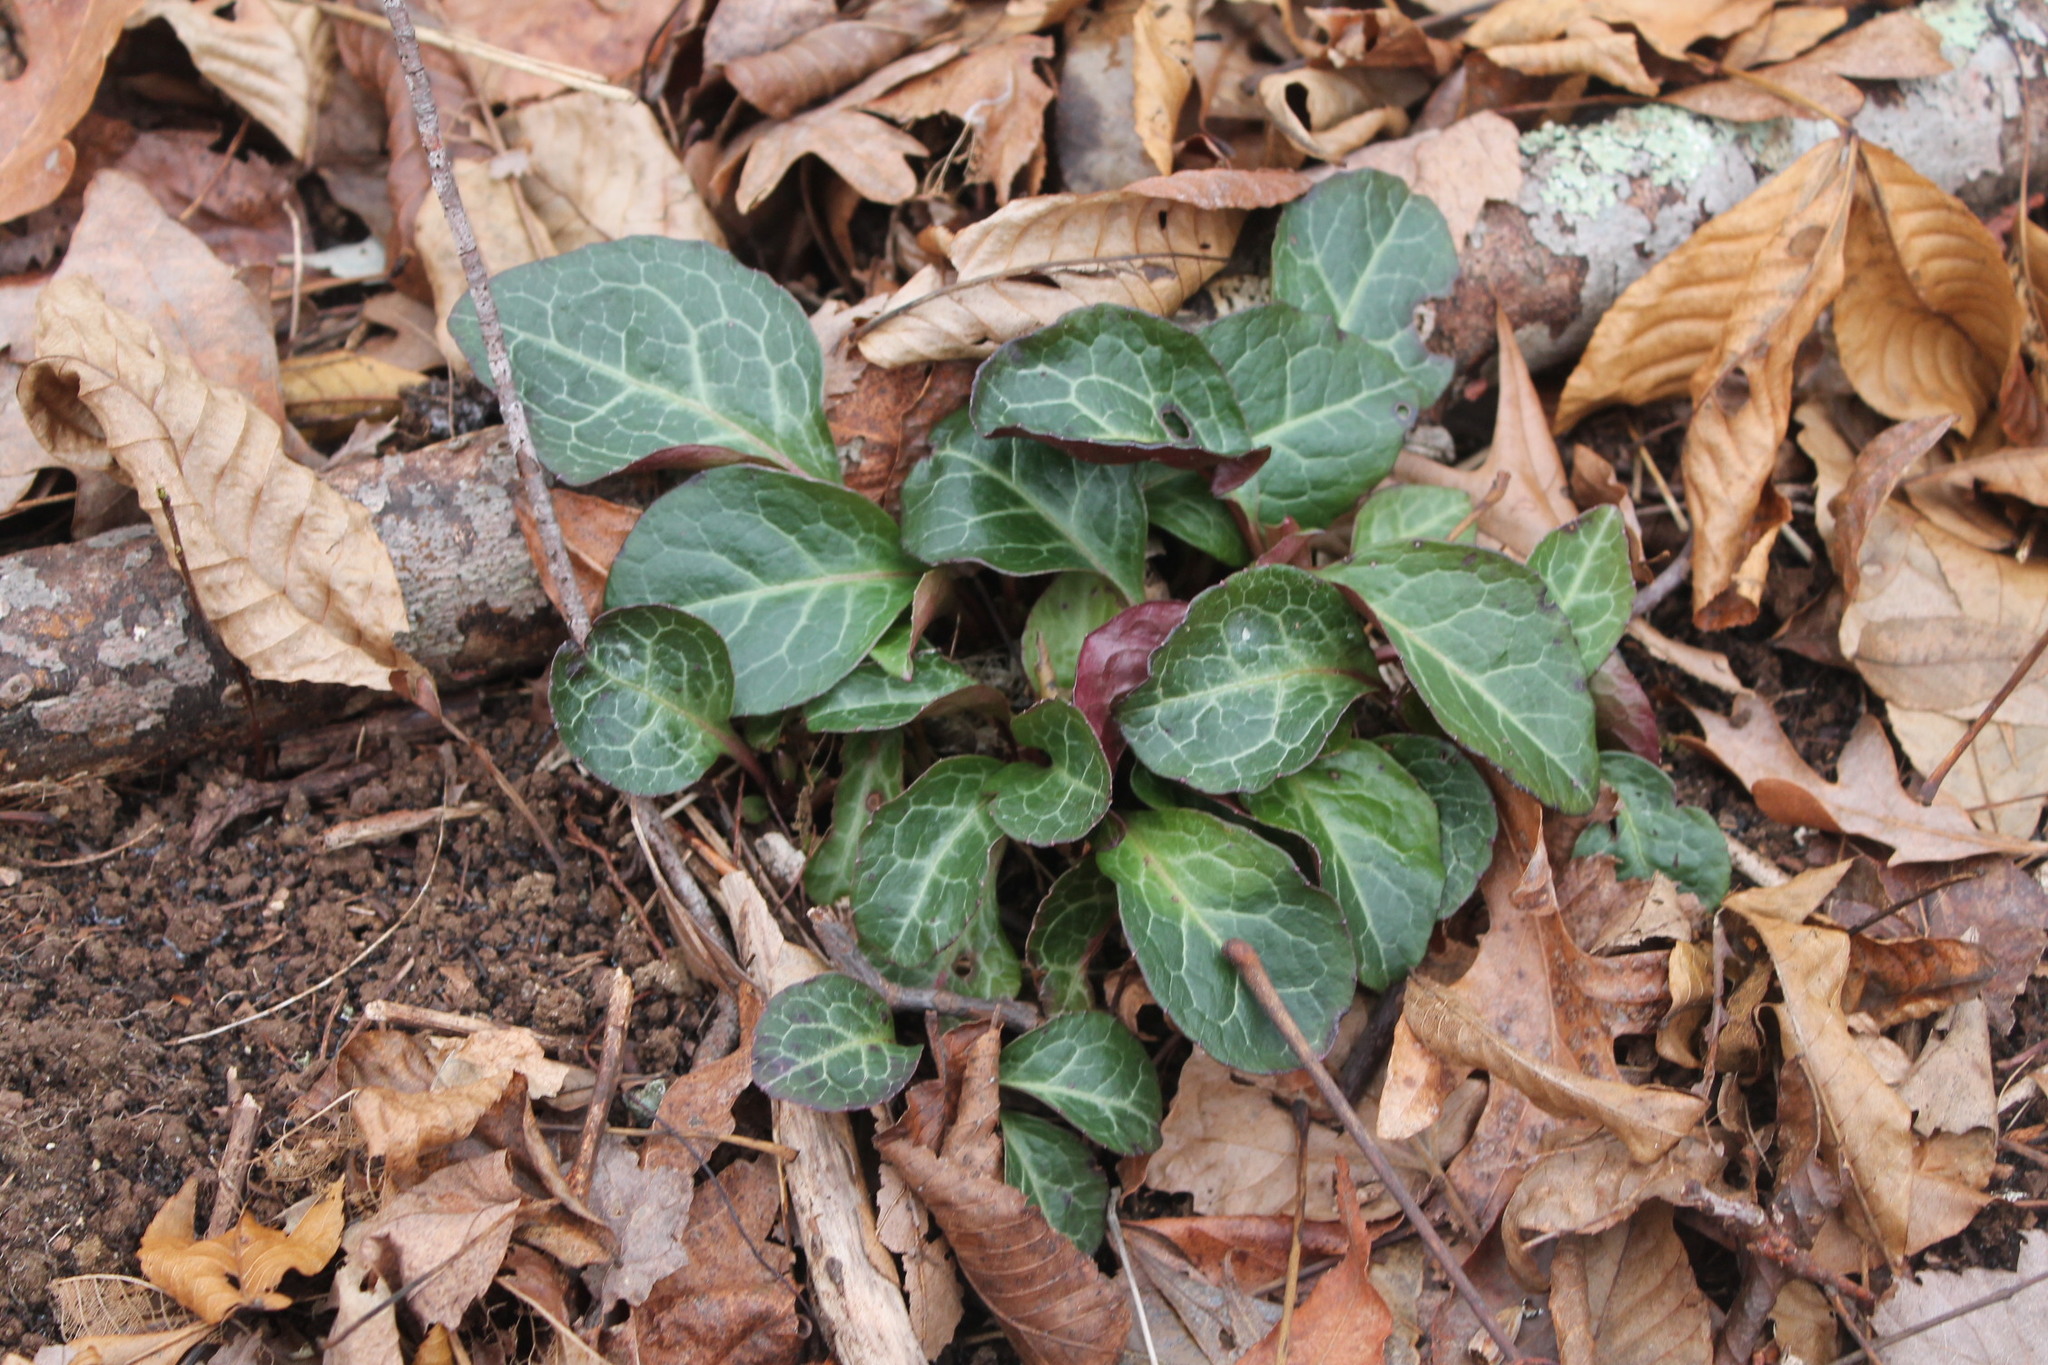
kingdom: Plantae
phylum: Tracheophyta
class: Magnoliopsida
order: Ericales
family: Ericaceae
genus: Pyrola
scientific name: Pyrola americana
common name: American wintergreen
